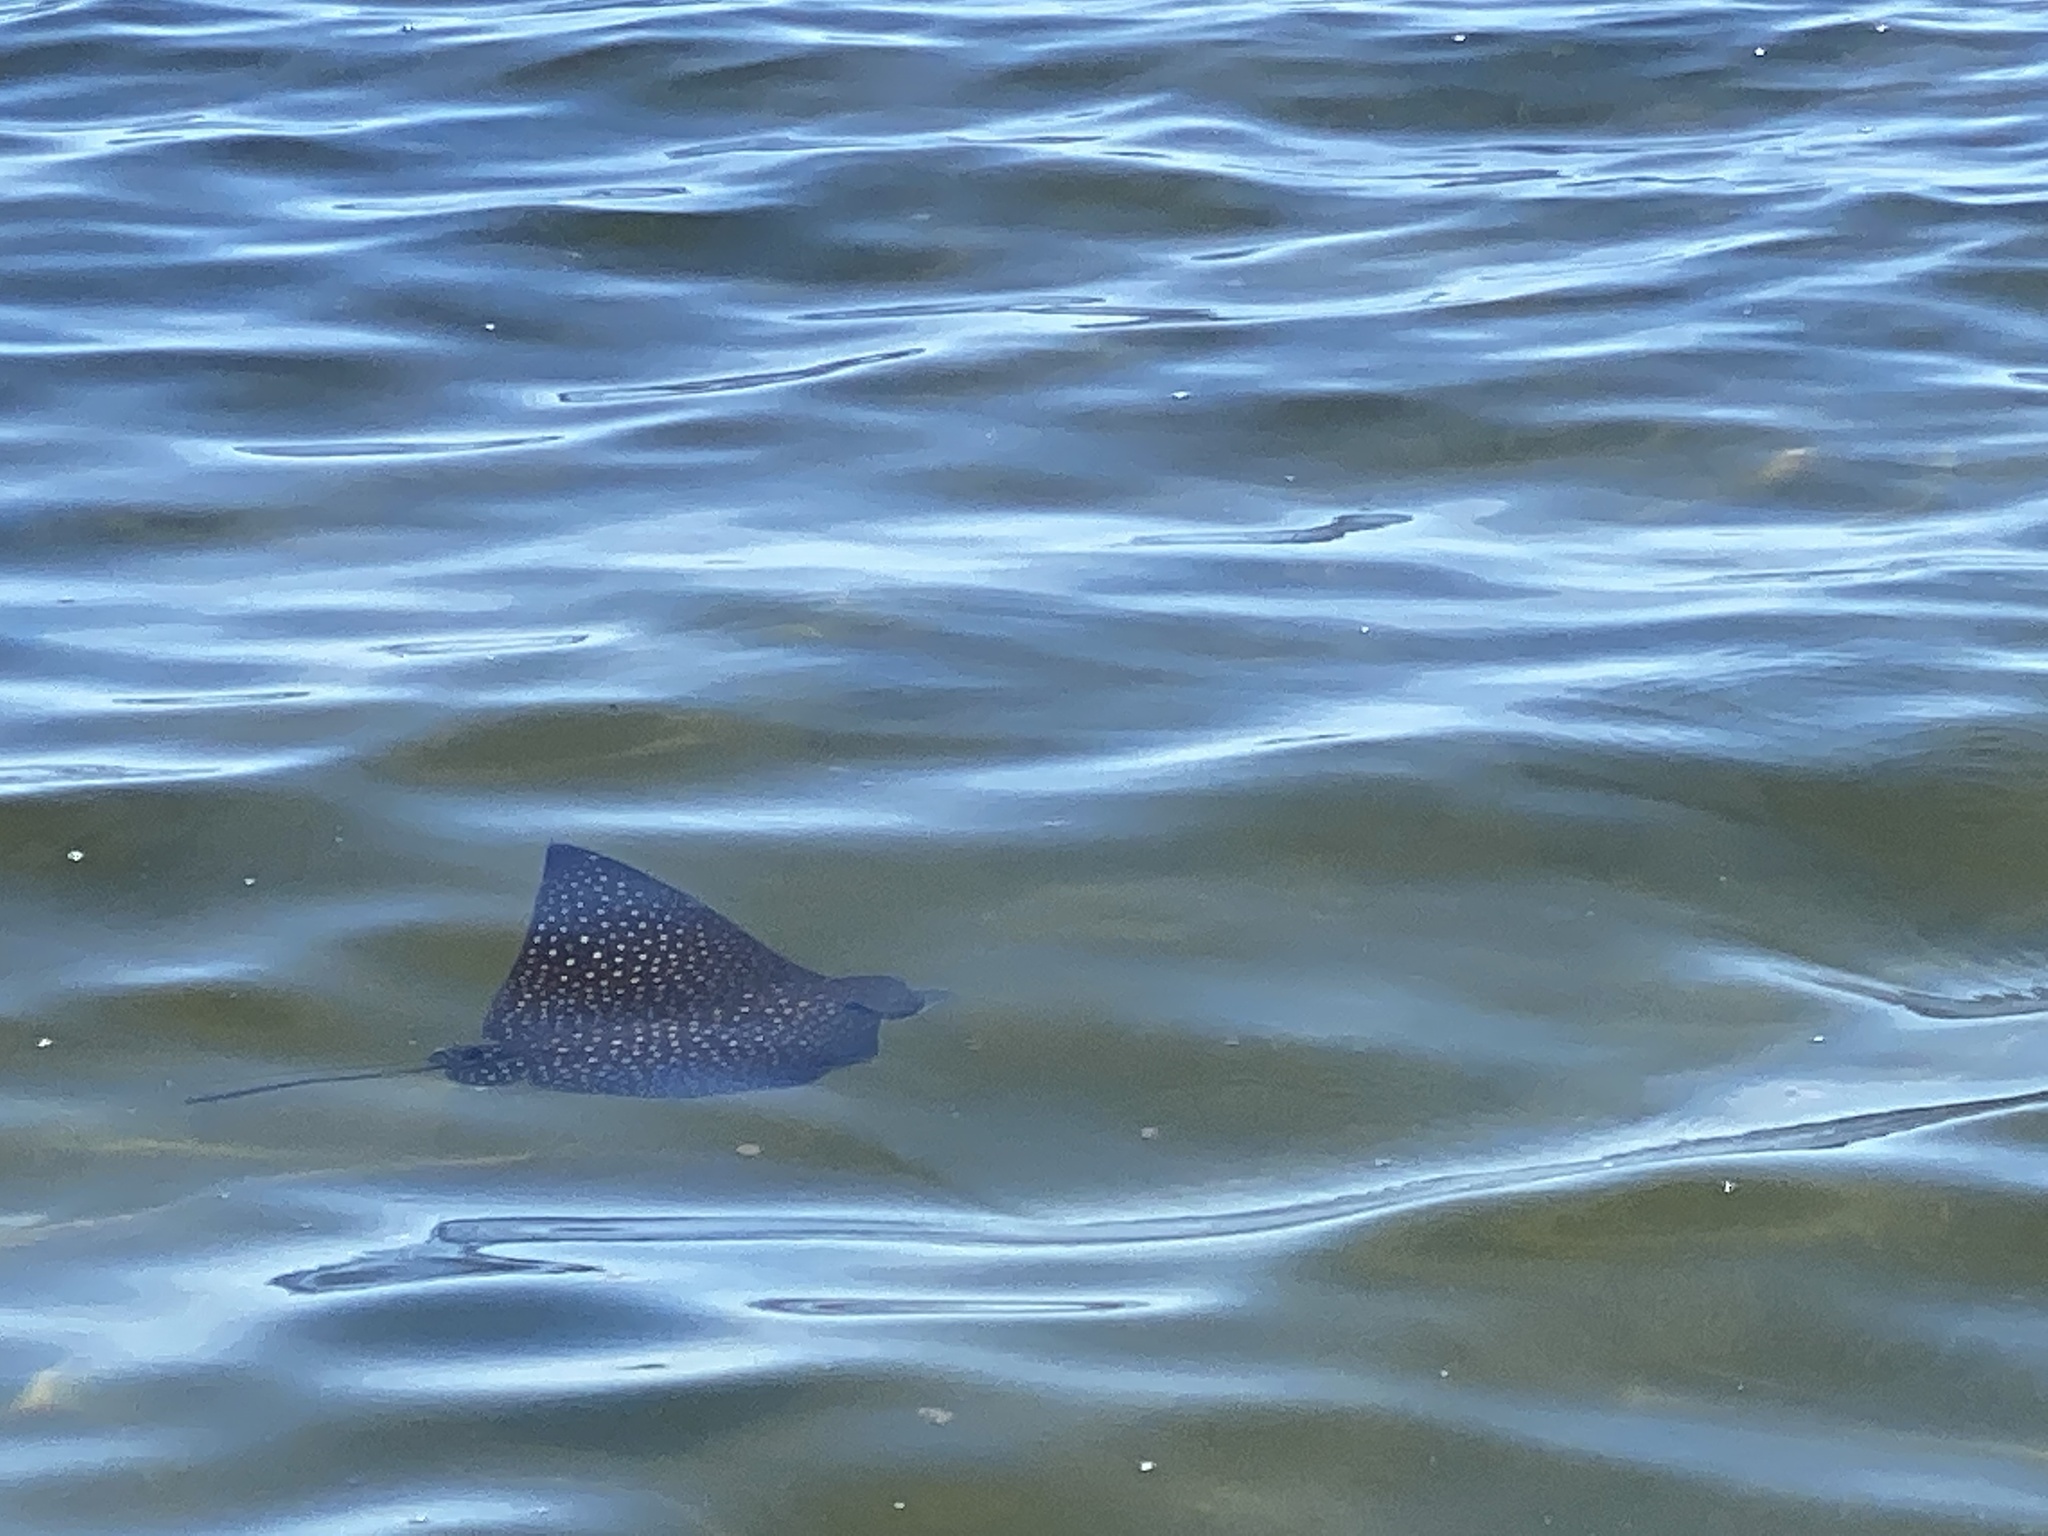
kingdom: Animalia
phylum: Chordata
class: Elasmobranchii
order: Myliobatiformes
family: Myliobatidae
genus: Aetobatus
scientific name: Aetobatus narinari
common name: Spotted eagle ray
